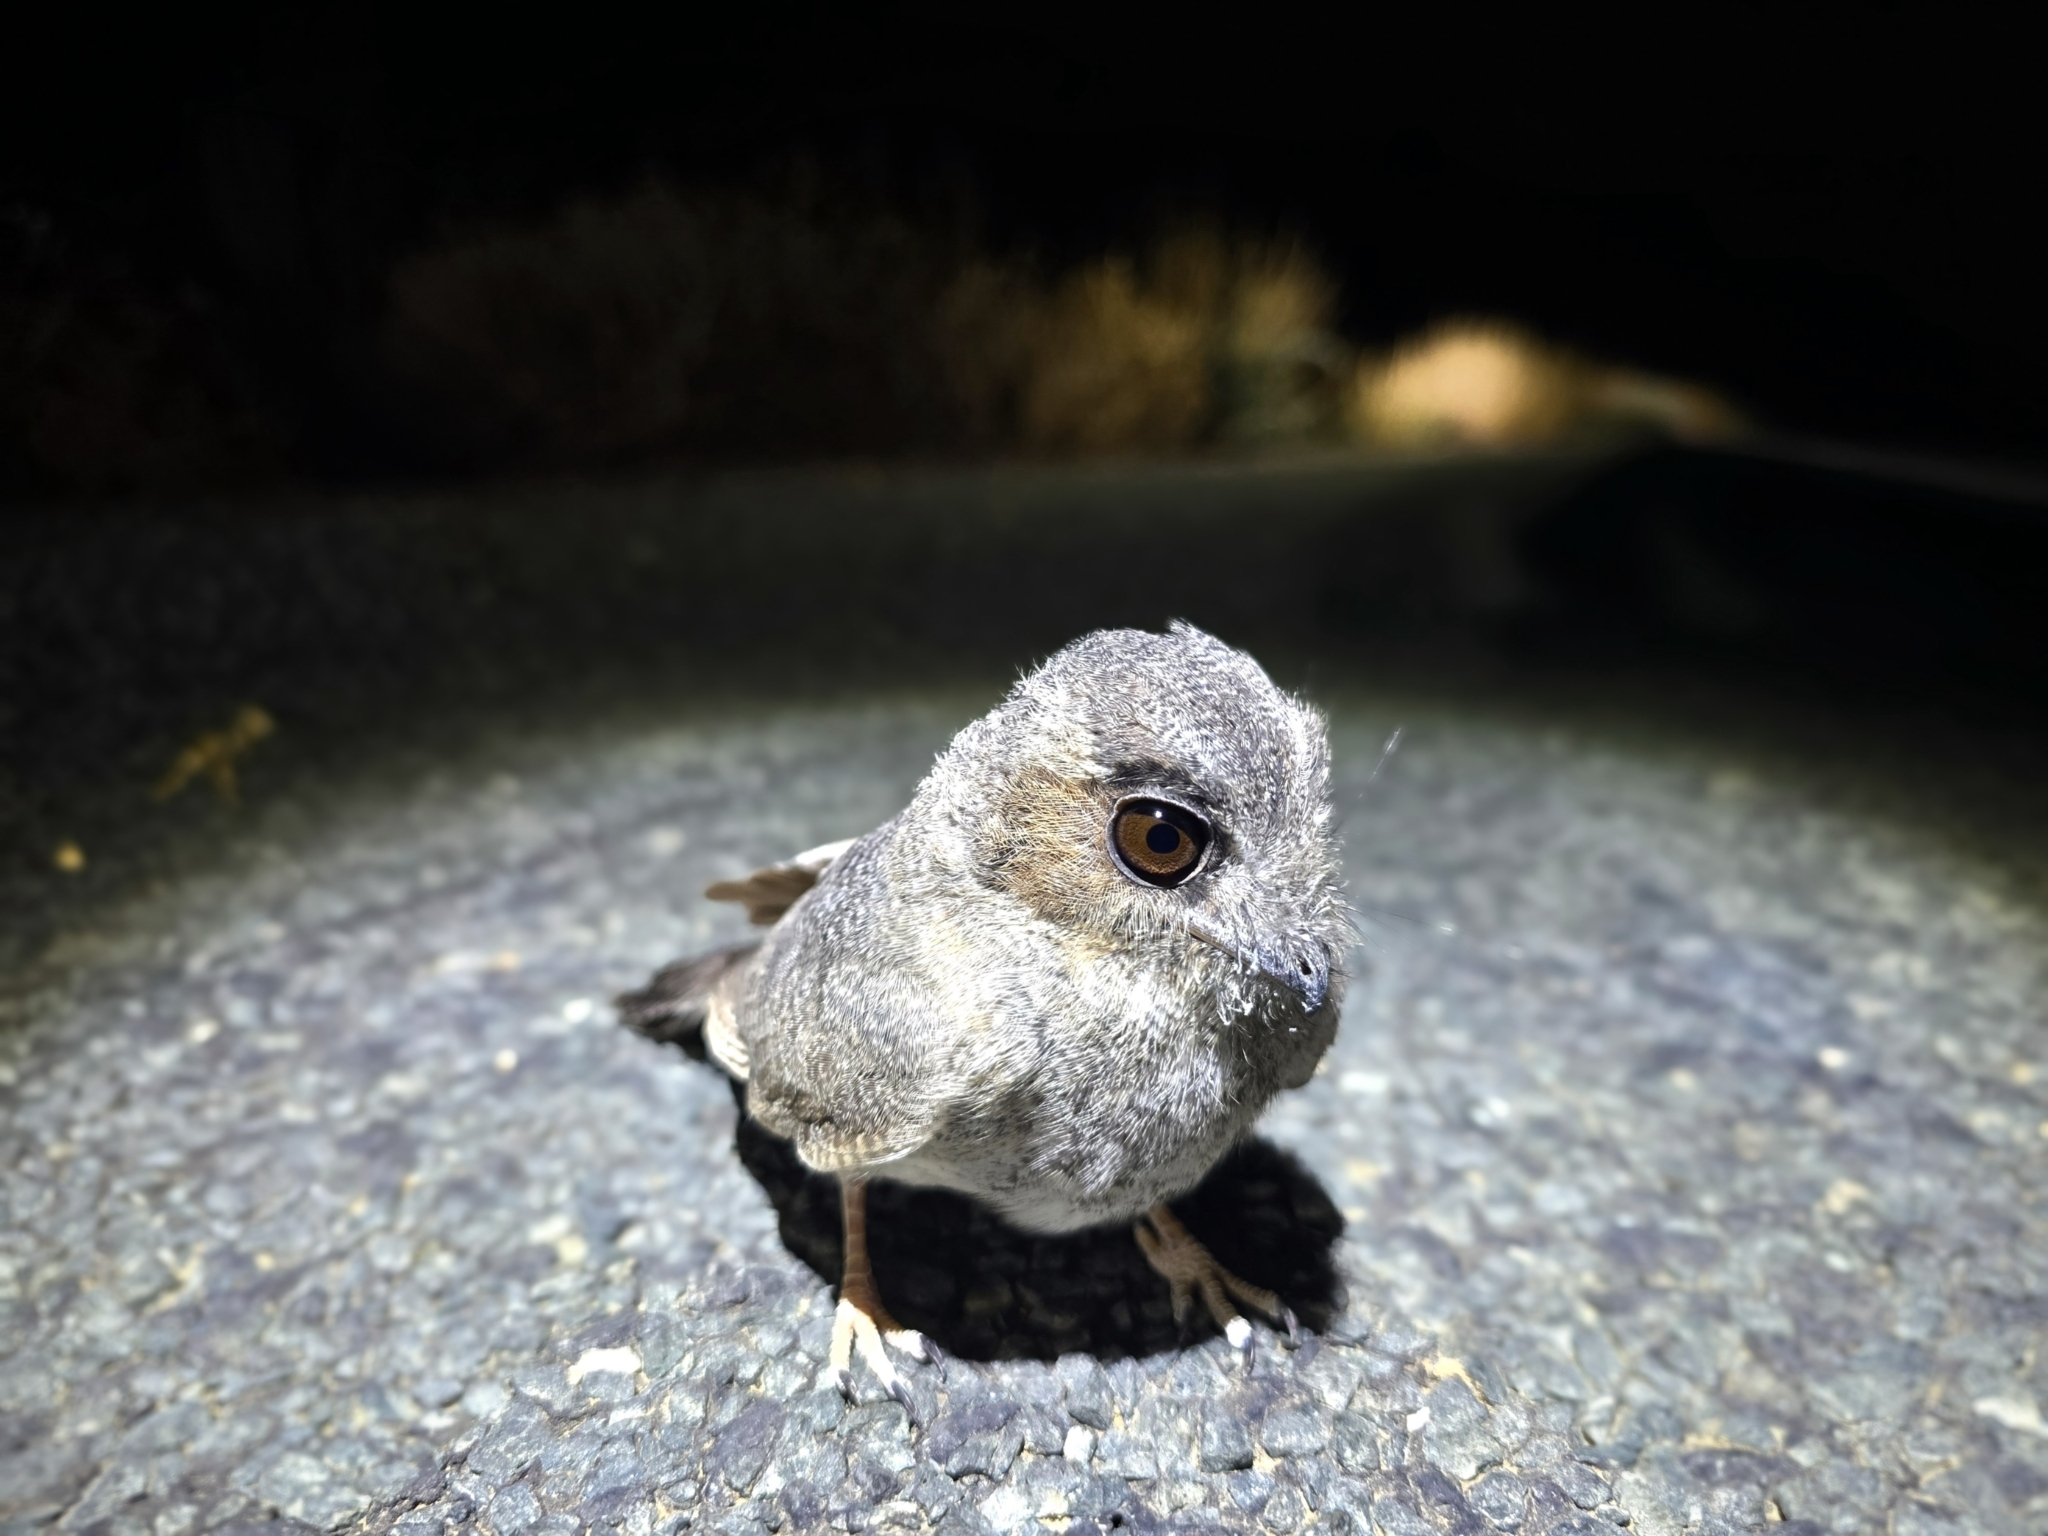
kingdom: Animalia
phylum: Chordata
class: Aves
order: Apodiformes
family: Aegothelidae
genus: Aegotheles
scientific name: Aegotheles cristatus
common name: Australian owlet-nightjar
